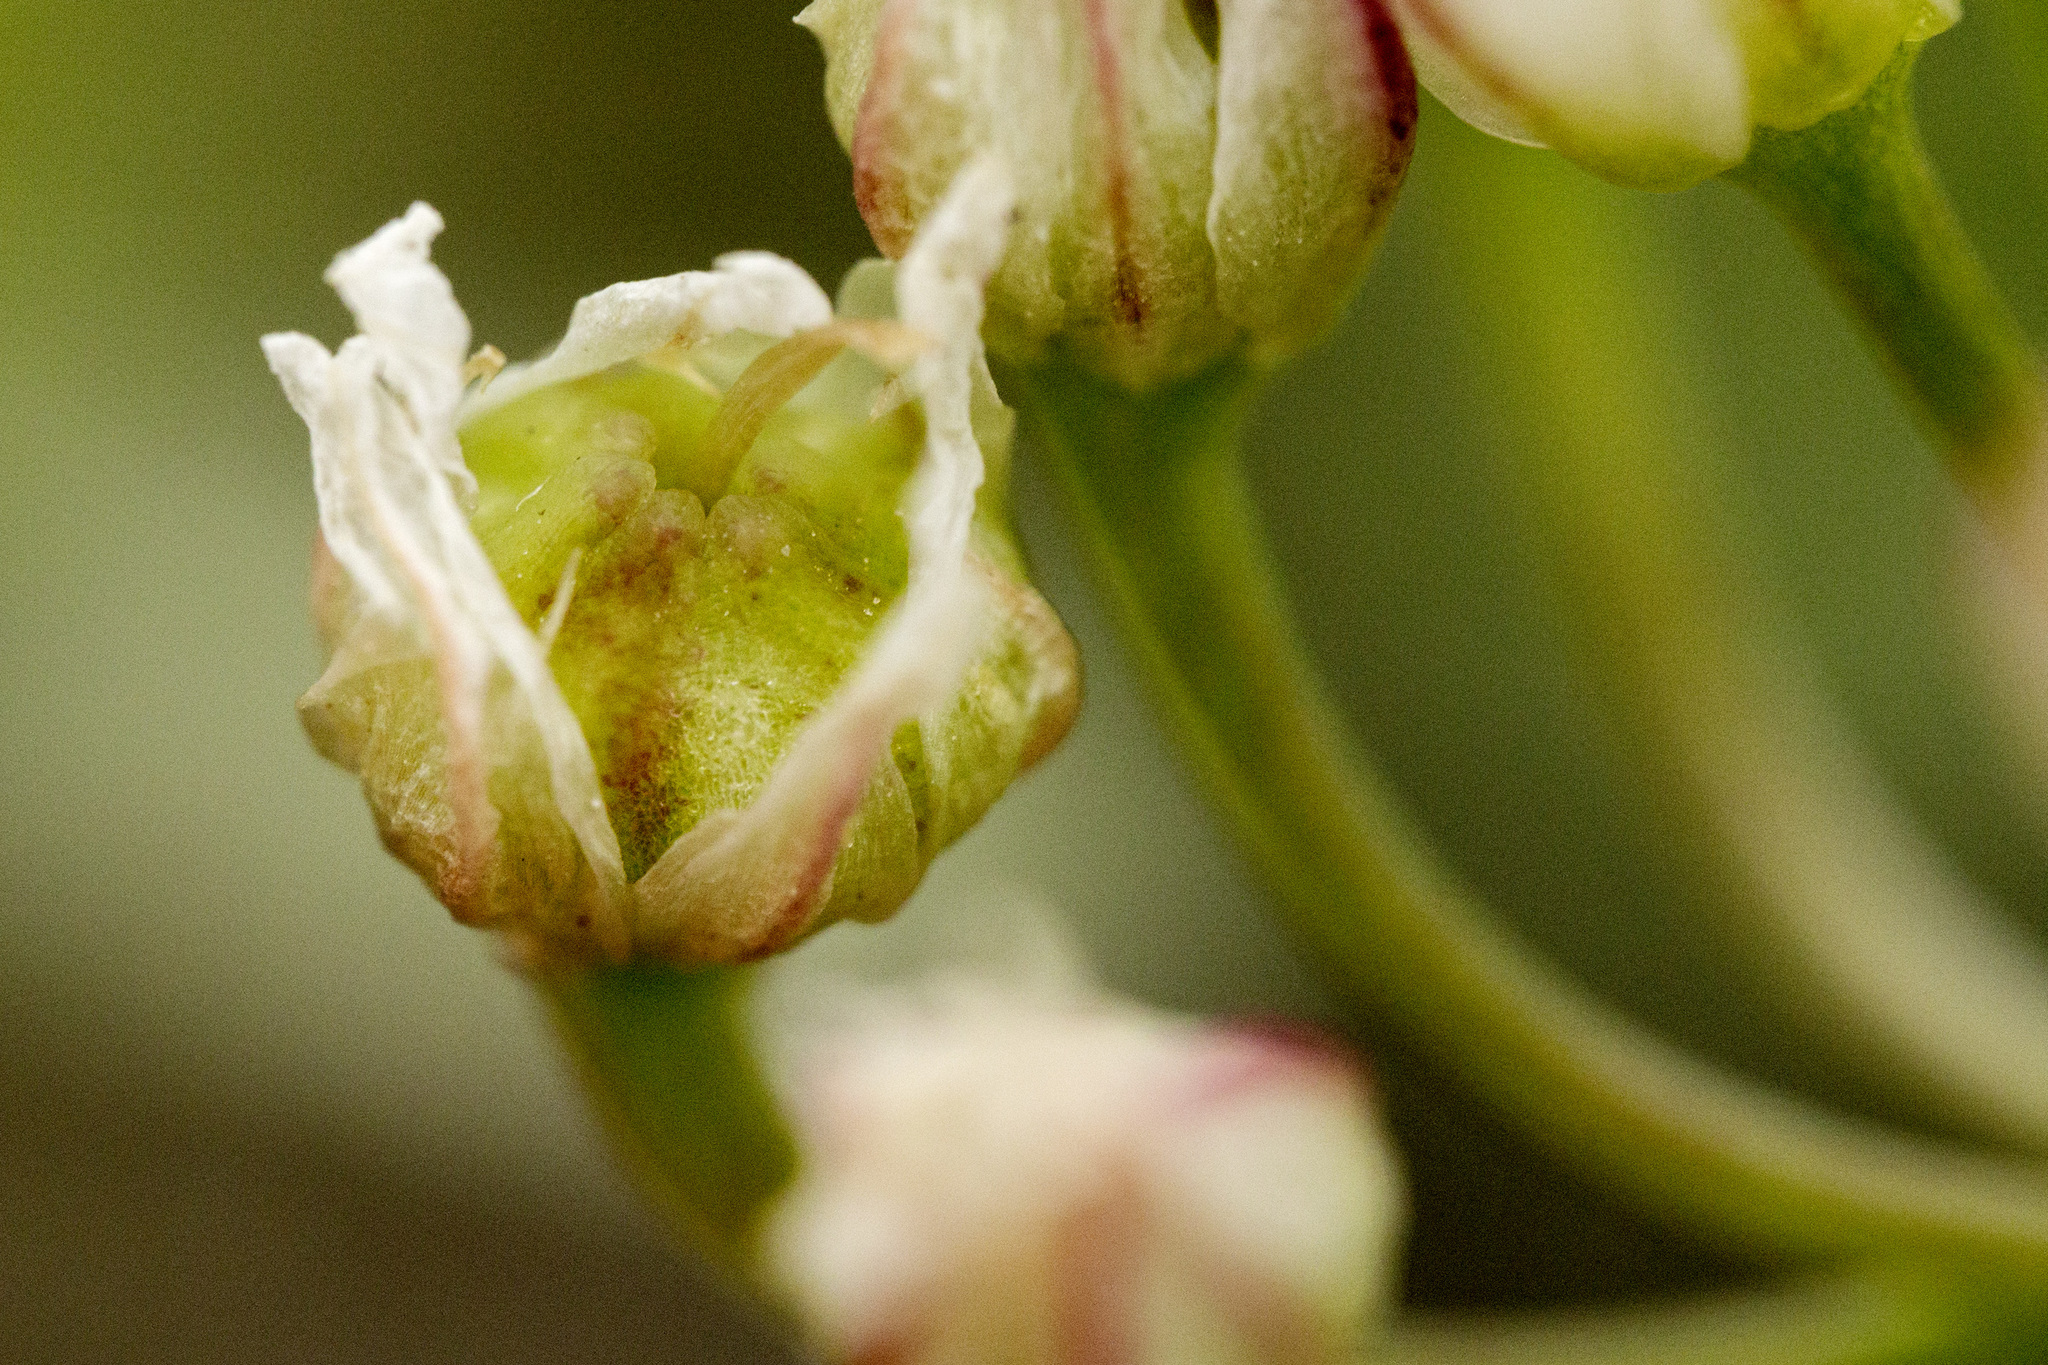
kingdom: Plantae
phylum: Tracheophyta
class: Liliopsida
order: Asparagales
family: Amaryllidaceae
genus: Allium
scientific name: Allium textile
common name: Prairie onion
